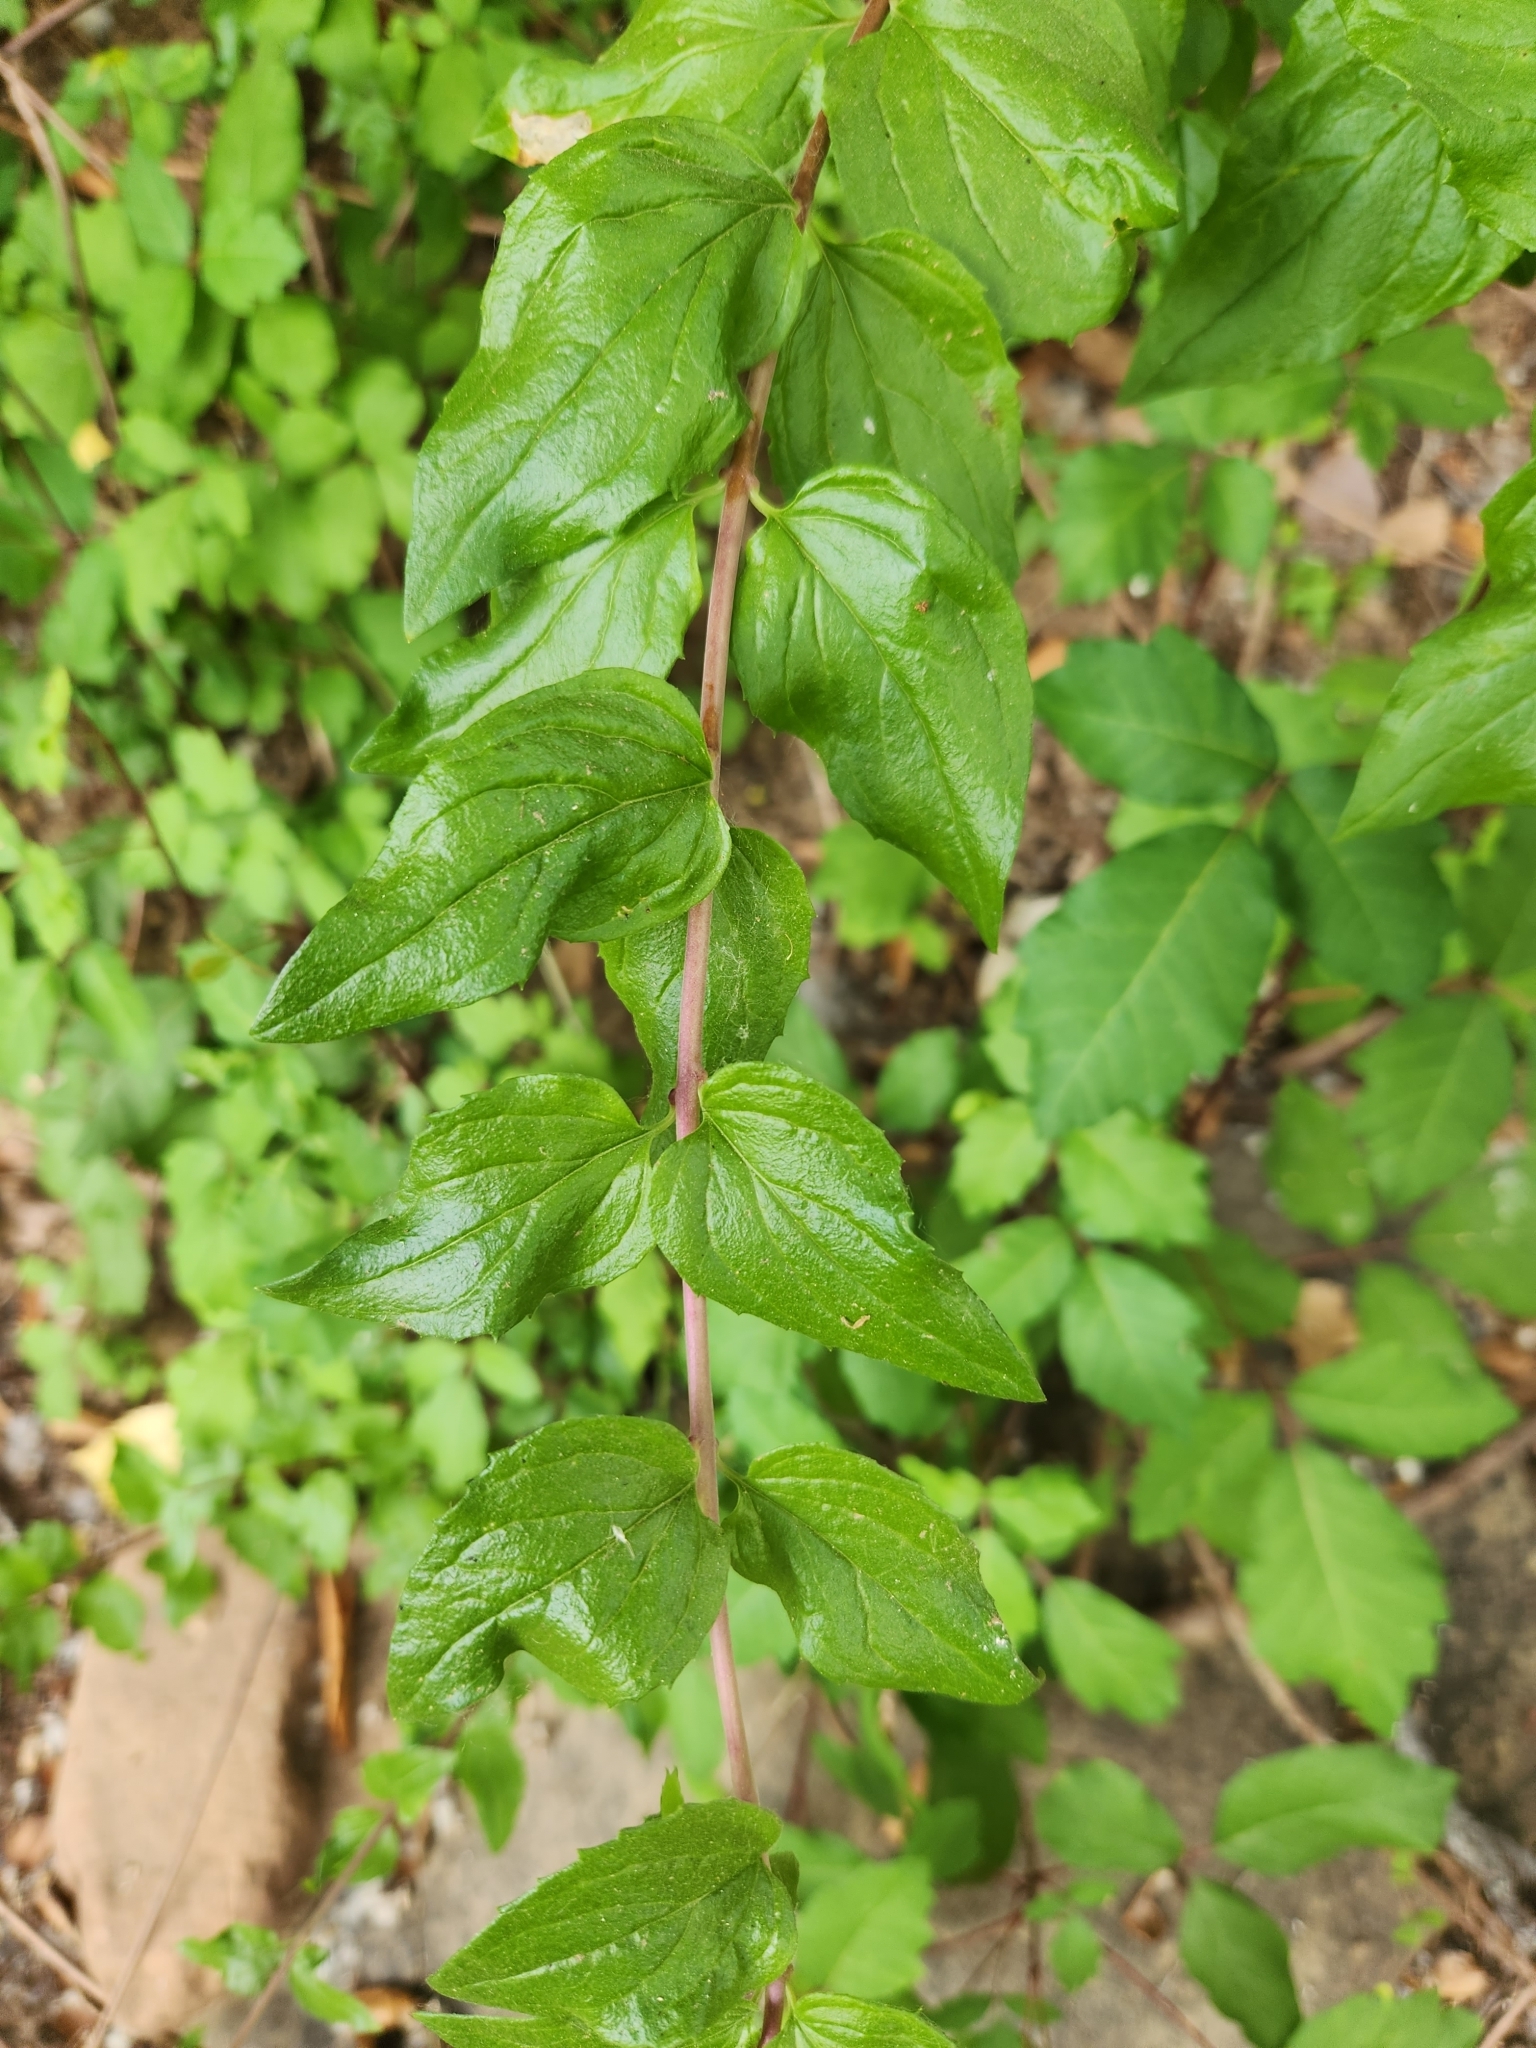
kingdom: Plantae
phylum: Tracheophyta
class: Magnoliopsida
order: Lamiales
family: Plantaginaceae
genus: Keckiella
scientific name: Keckiella cordifolia
